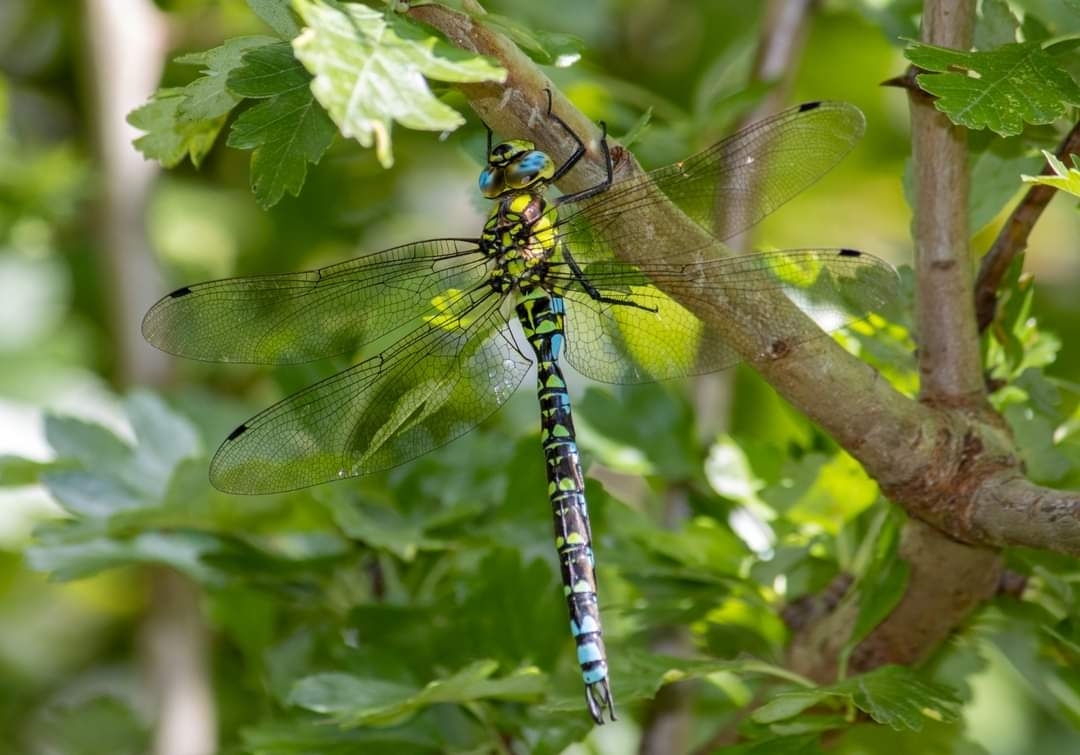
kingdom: Animalia
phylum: Arthropoda
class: Insecta
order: Odonata
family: Aeshnidae
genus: Aeshna
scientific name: Aeshna cyanea
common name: Southern hawker
